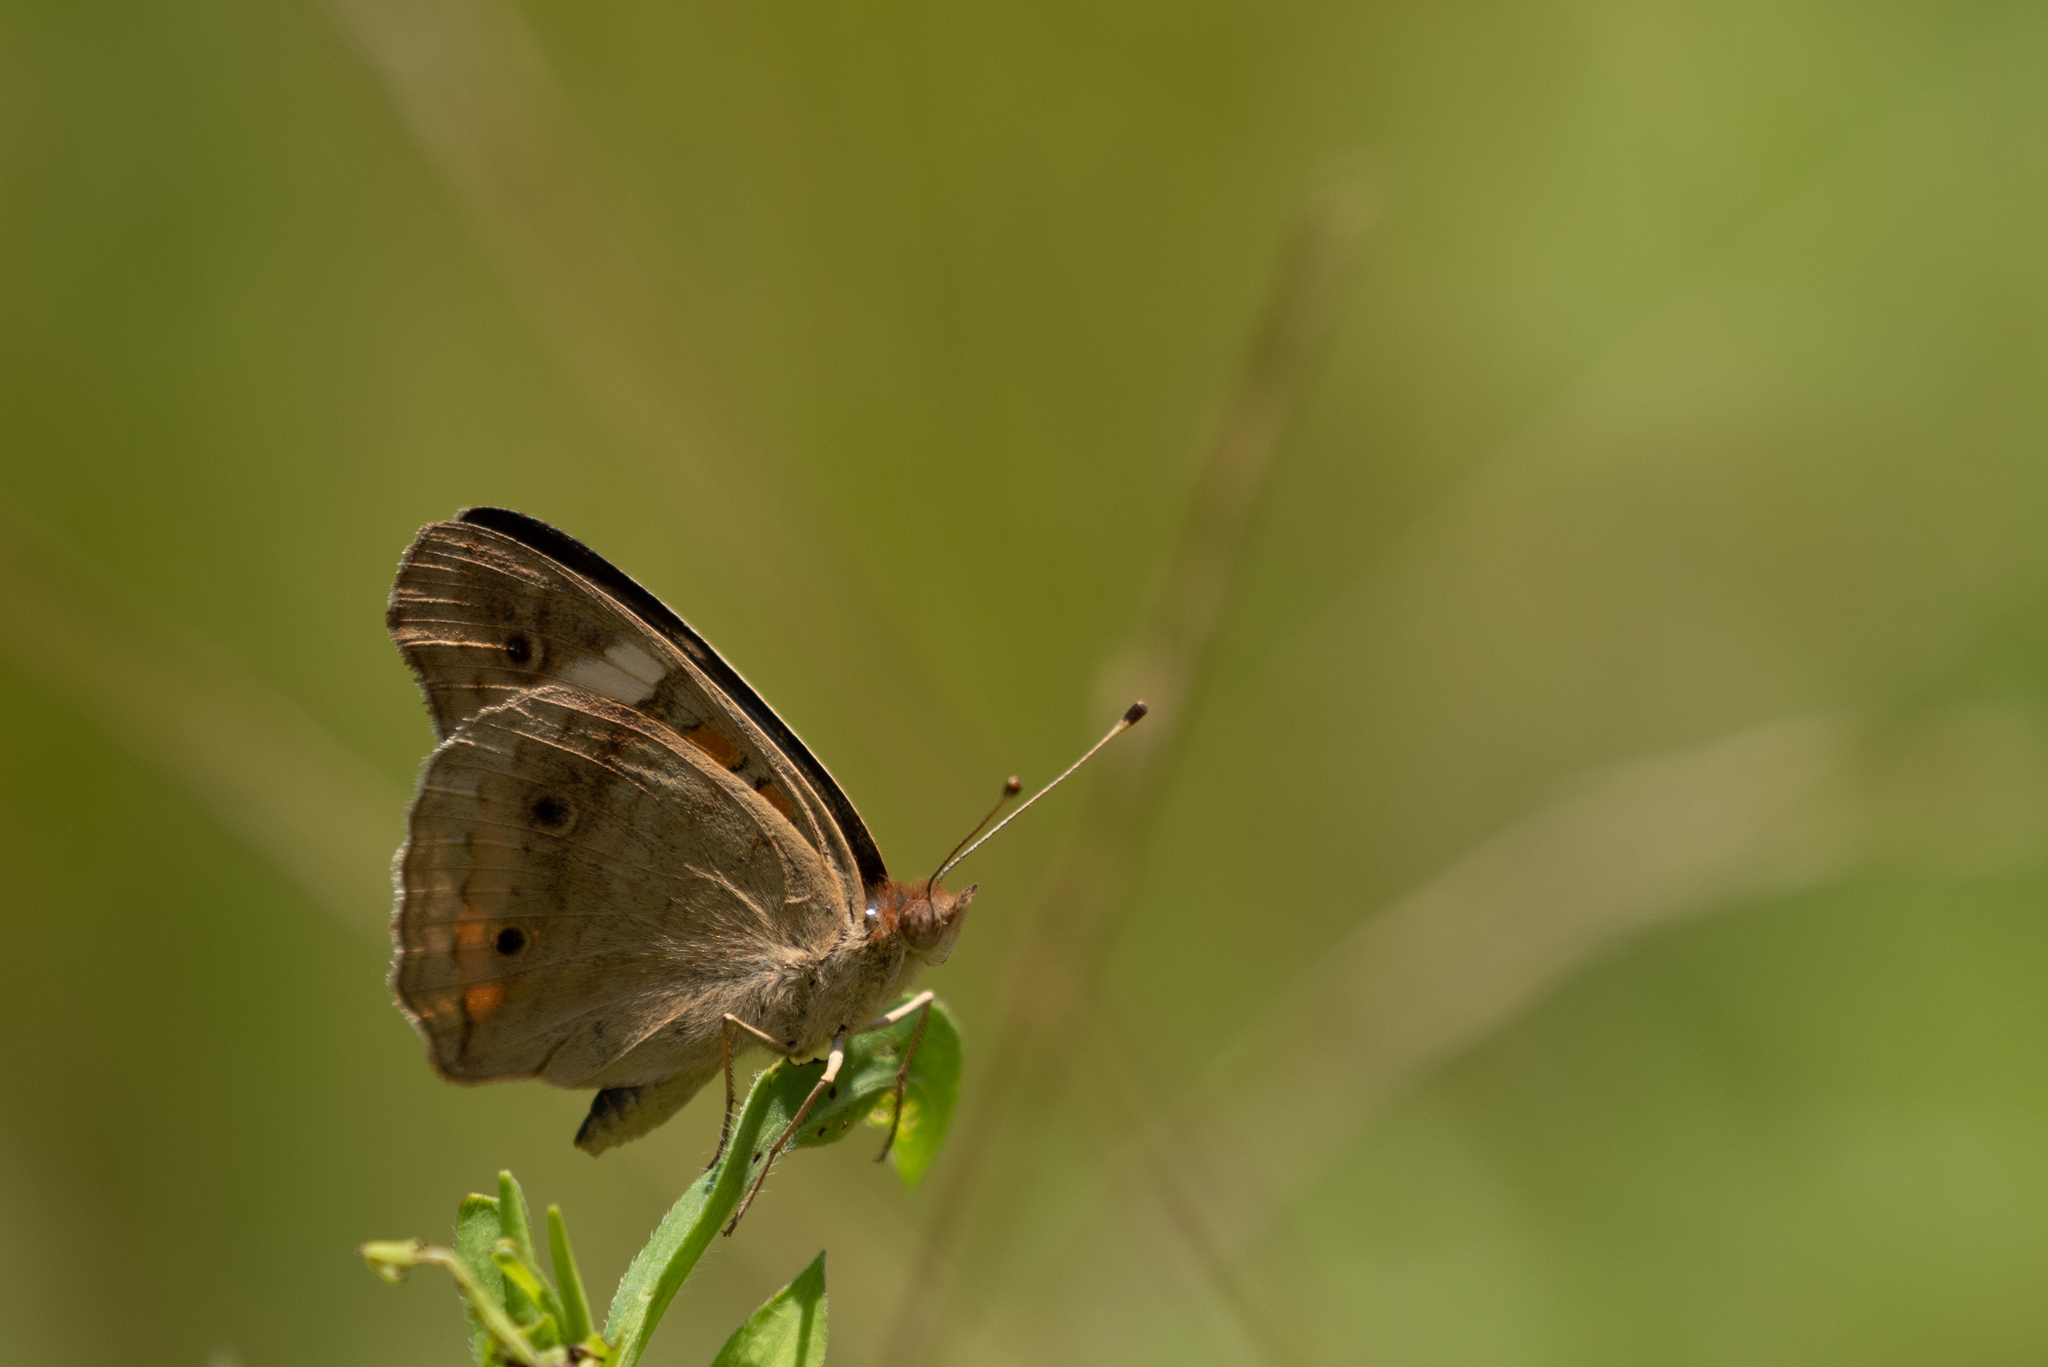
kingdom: Animalia
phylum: Arthropoda
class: Insecta
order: Lepidoptera
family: Nymphalidae
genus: Junonia
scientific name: Junonia coenia
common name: Common buckeye
